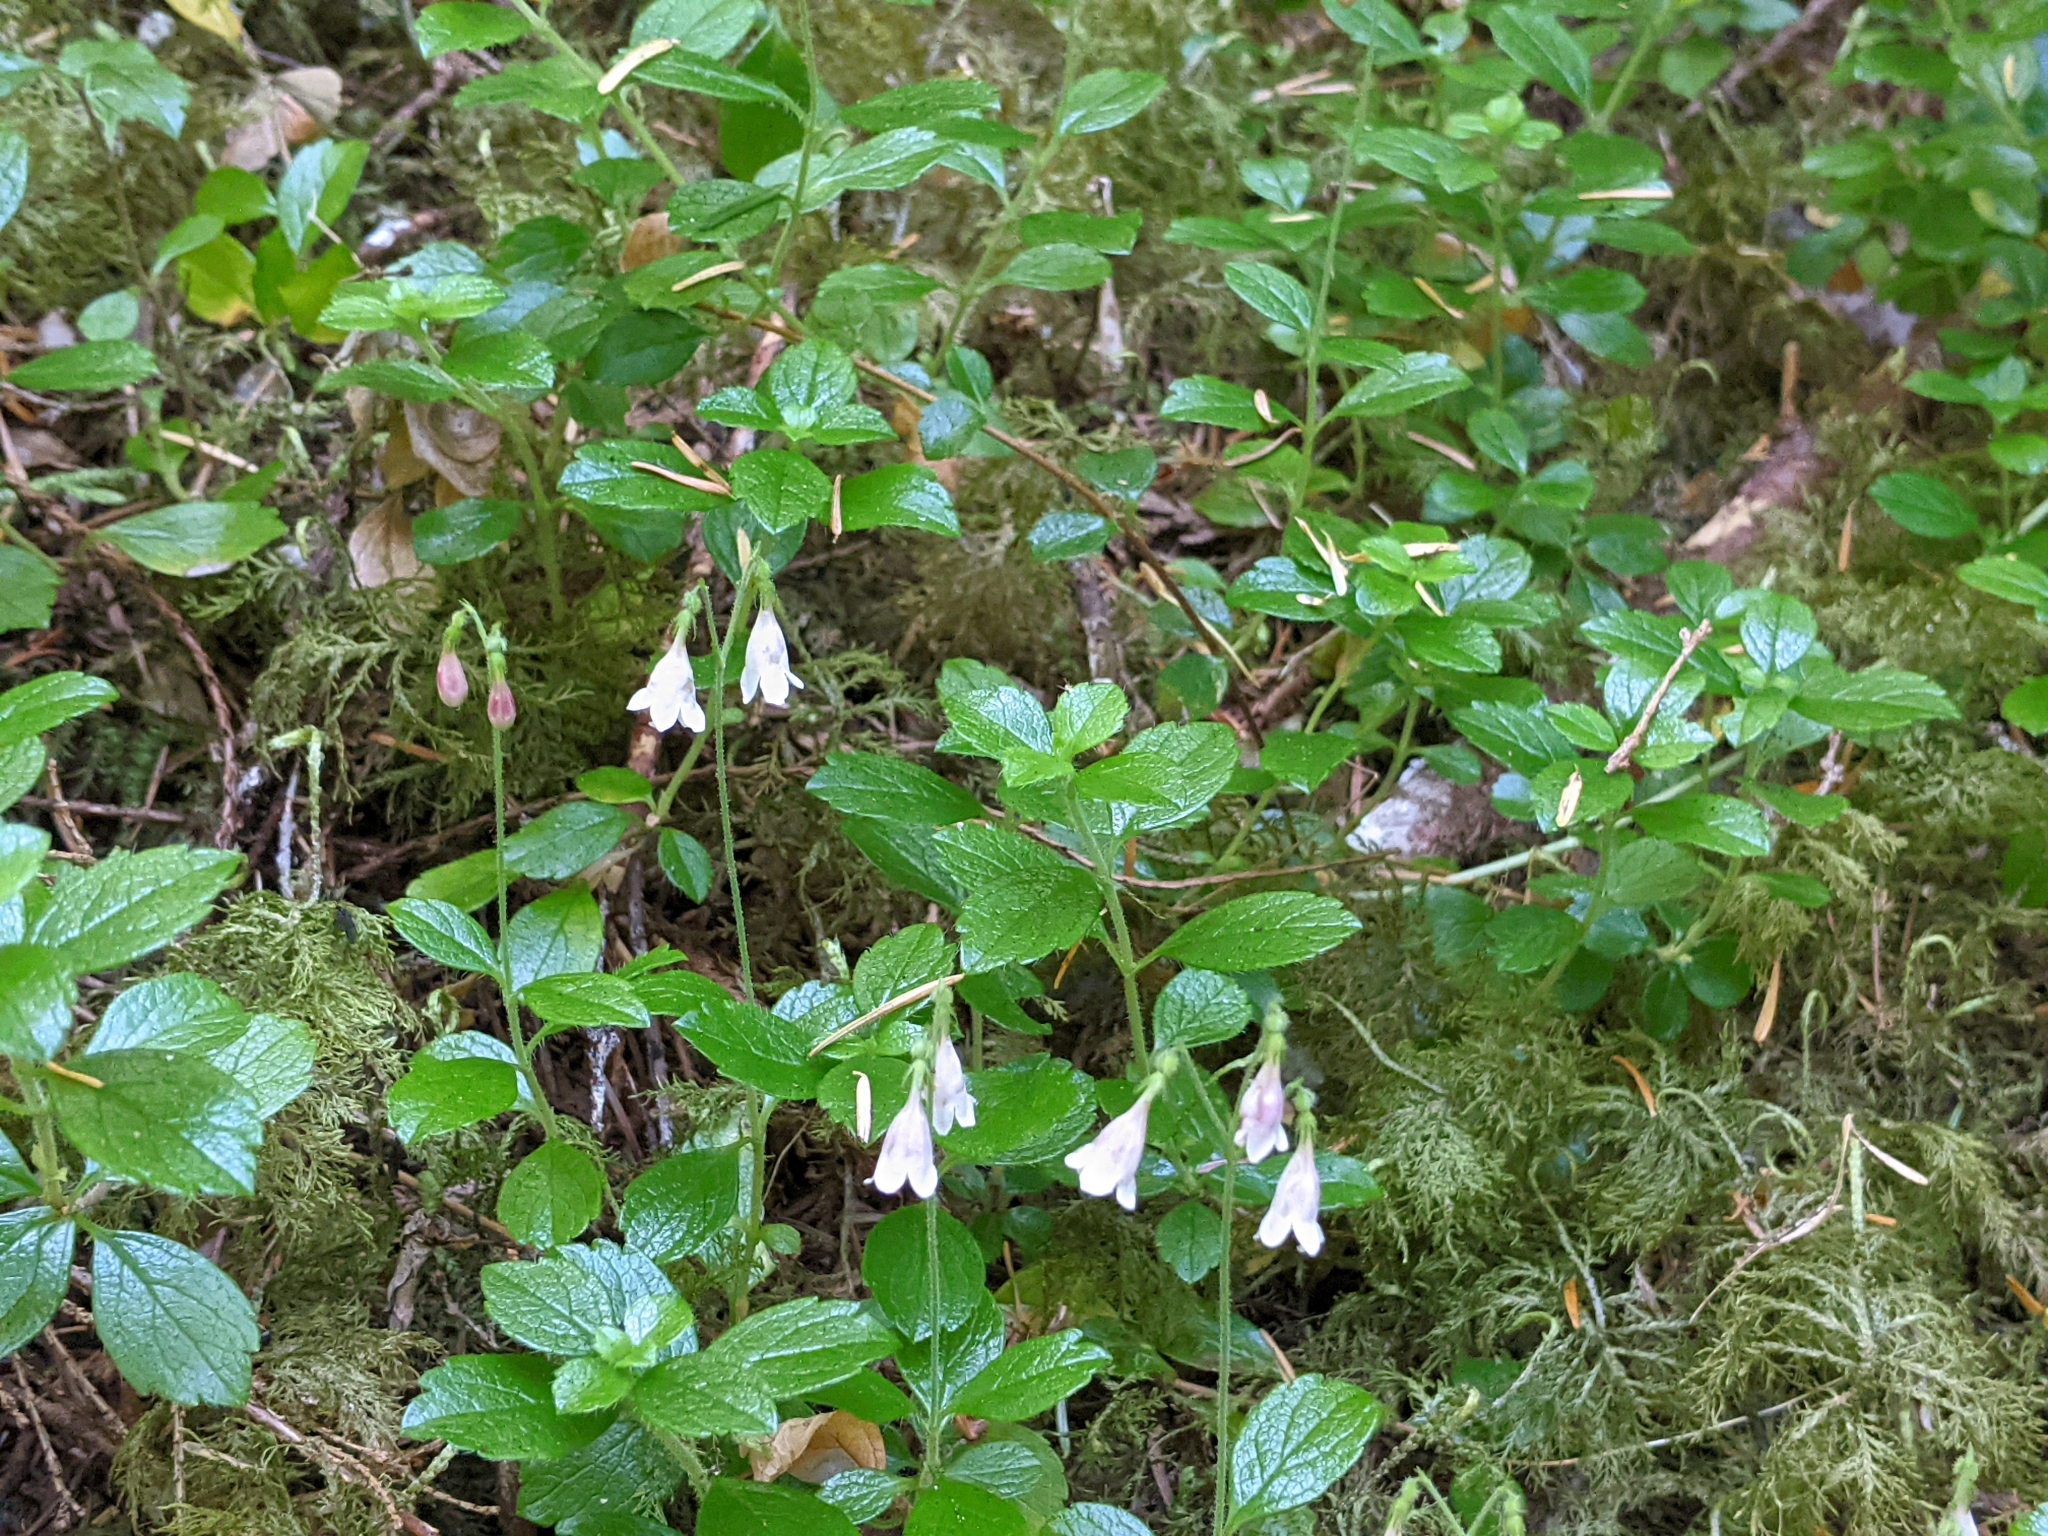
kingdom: Plantae
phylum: Tracheophyta
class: Magnoliopsida
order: Dipsacales
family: Caprifoliaceae
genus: Linnaea
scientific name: Linnaea borealis
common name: Twinflower
